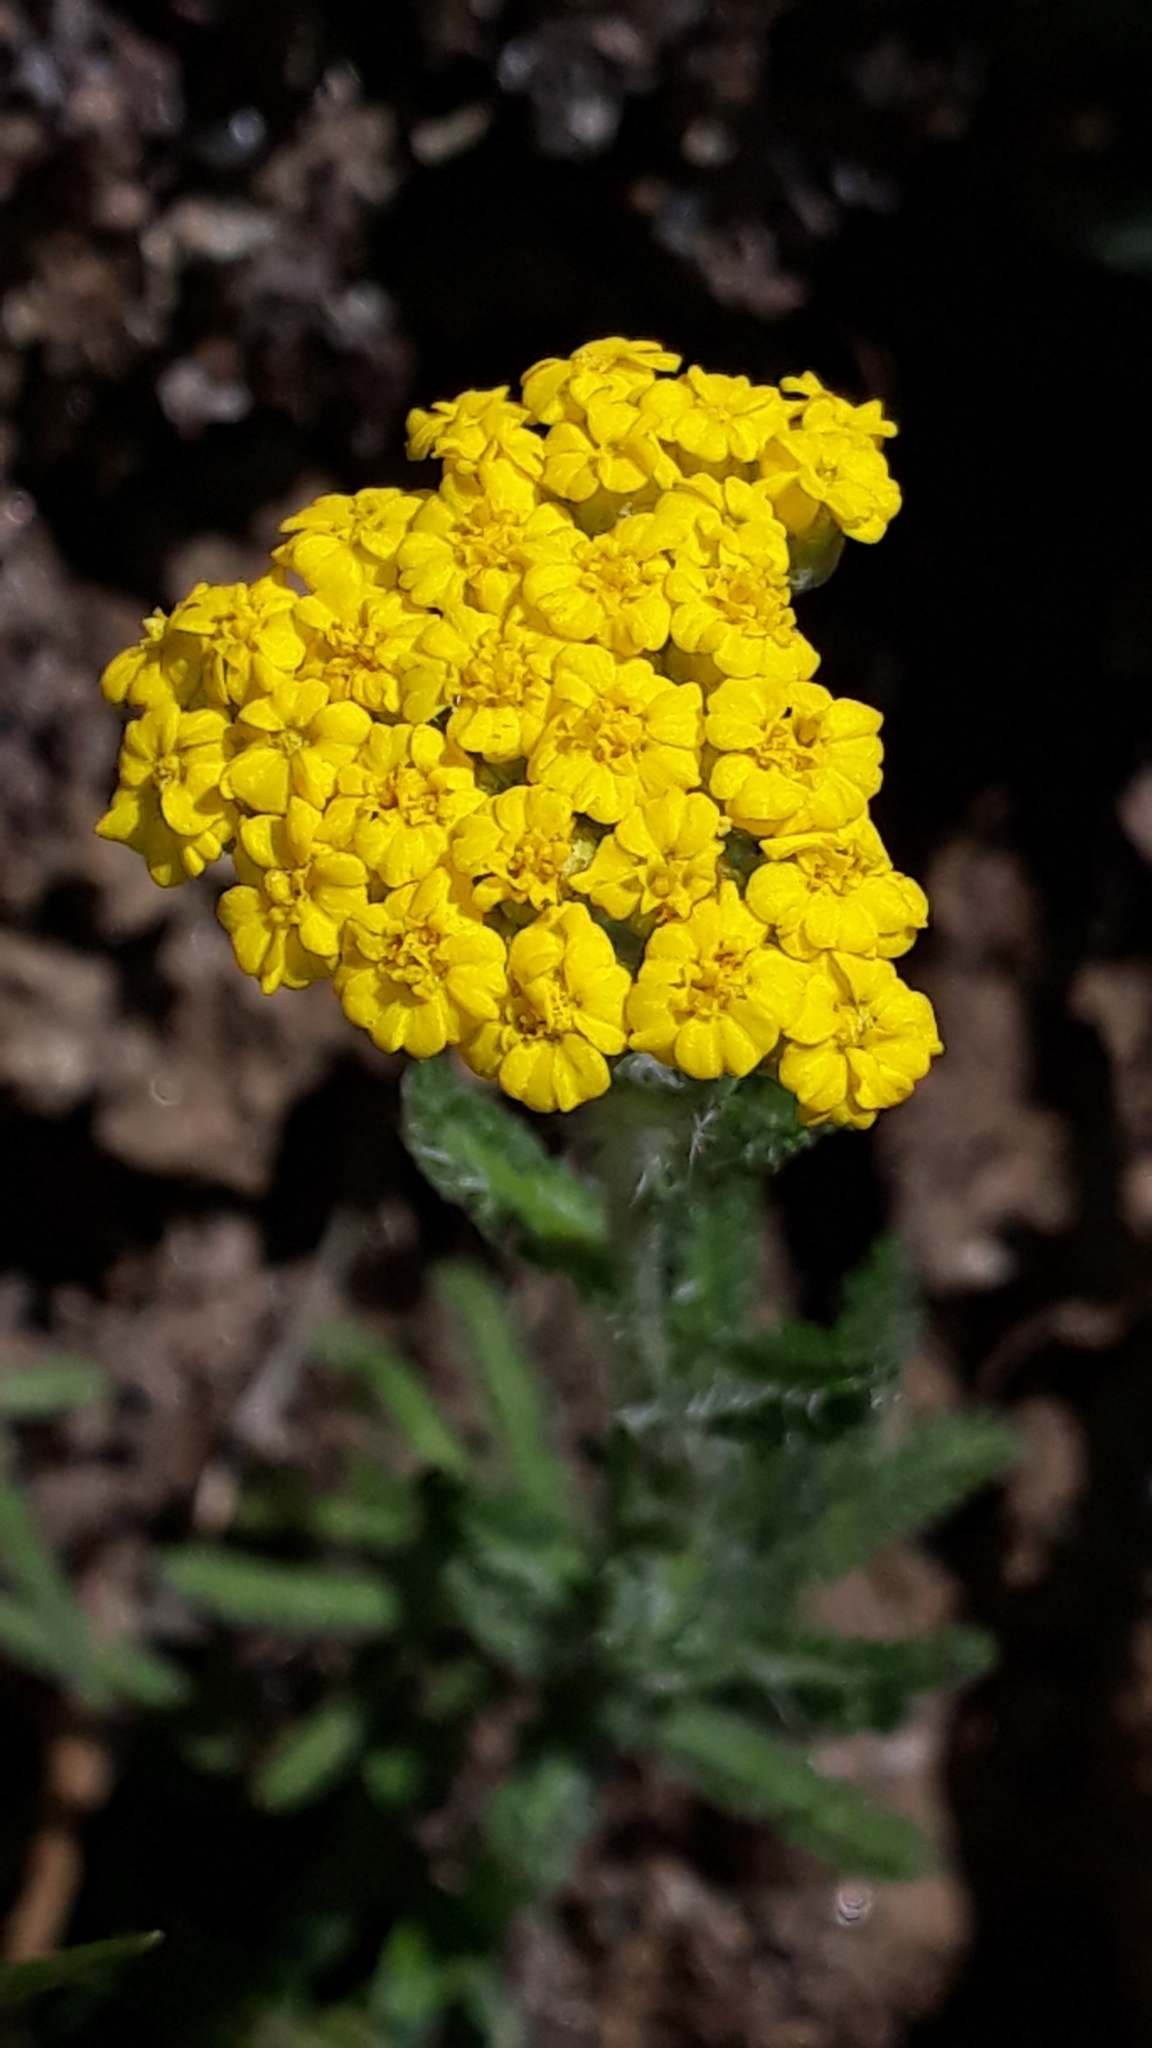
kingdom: Plantae
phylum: Tracheophyta
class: Magnoliopsida
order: Asterales
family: Asteraceae
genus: Achillea
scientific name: Achillea tomentosa
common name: Yellow milfoil
